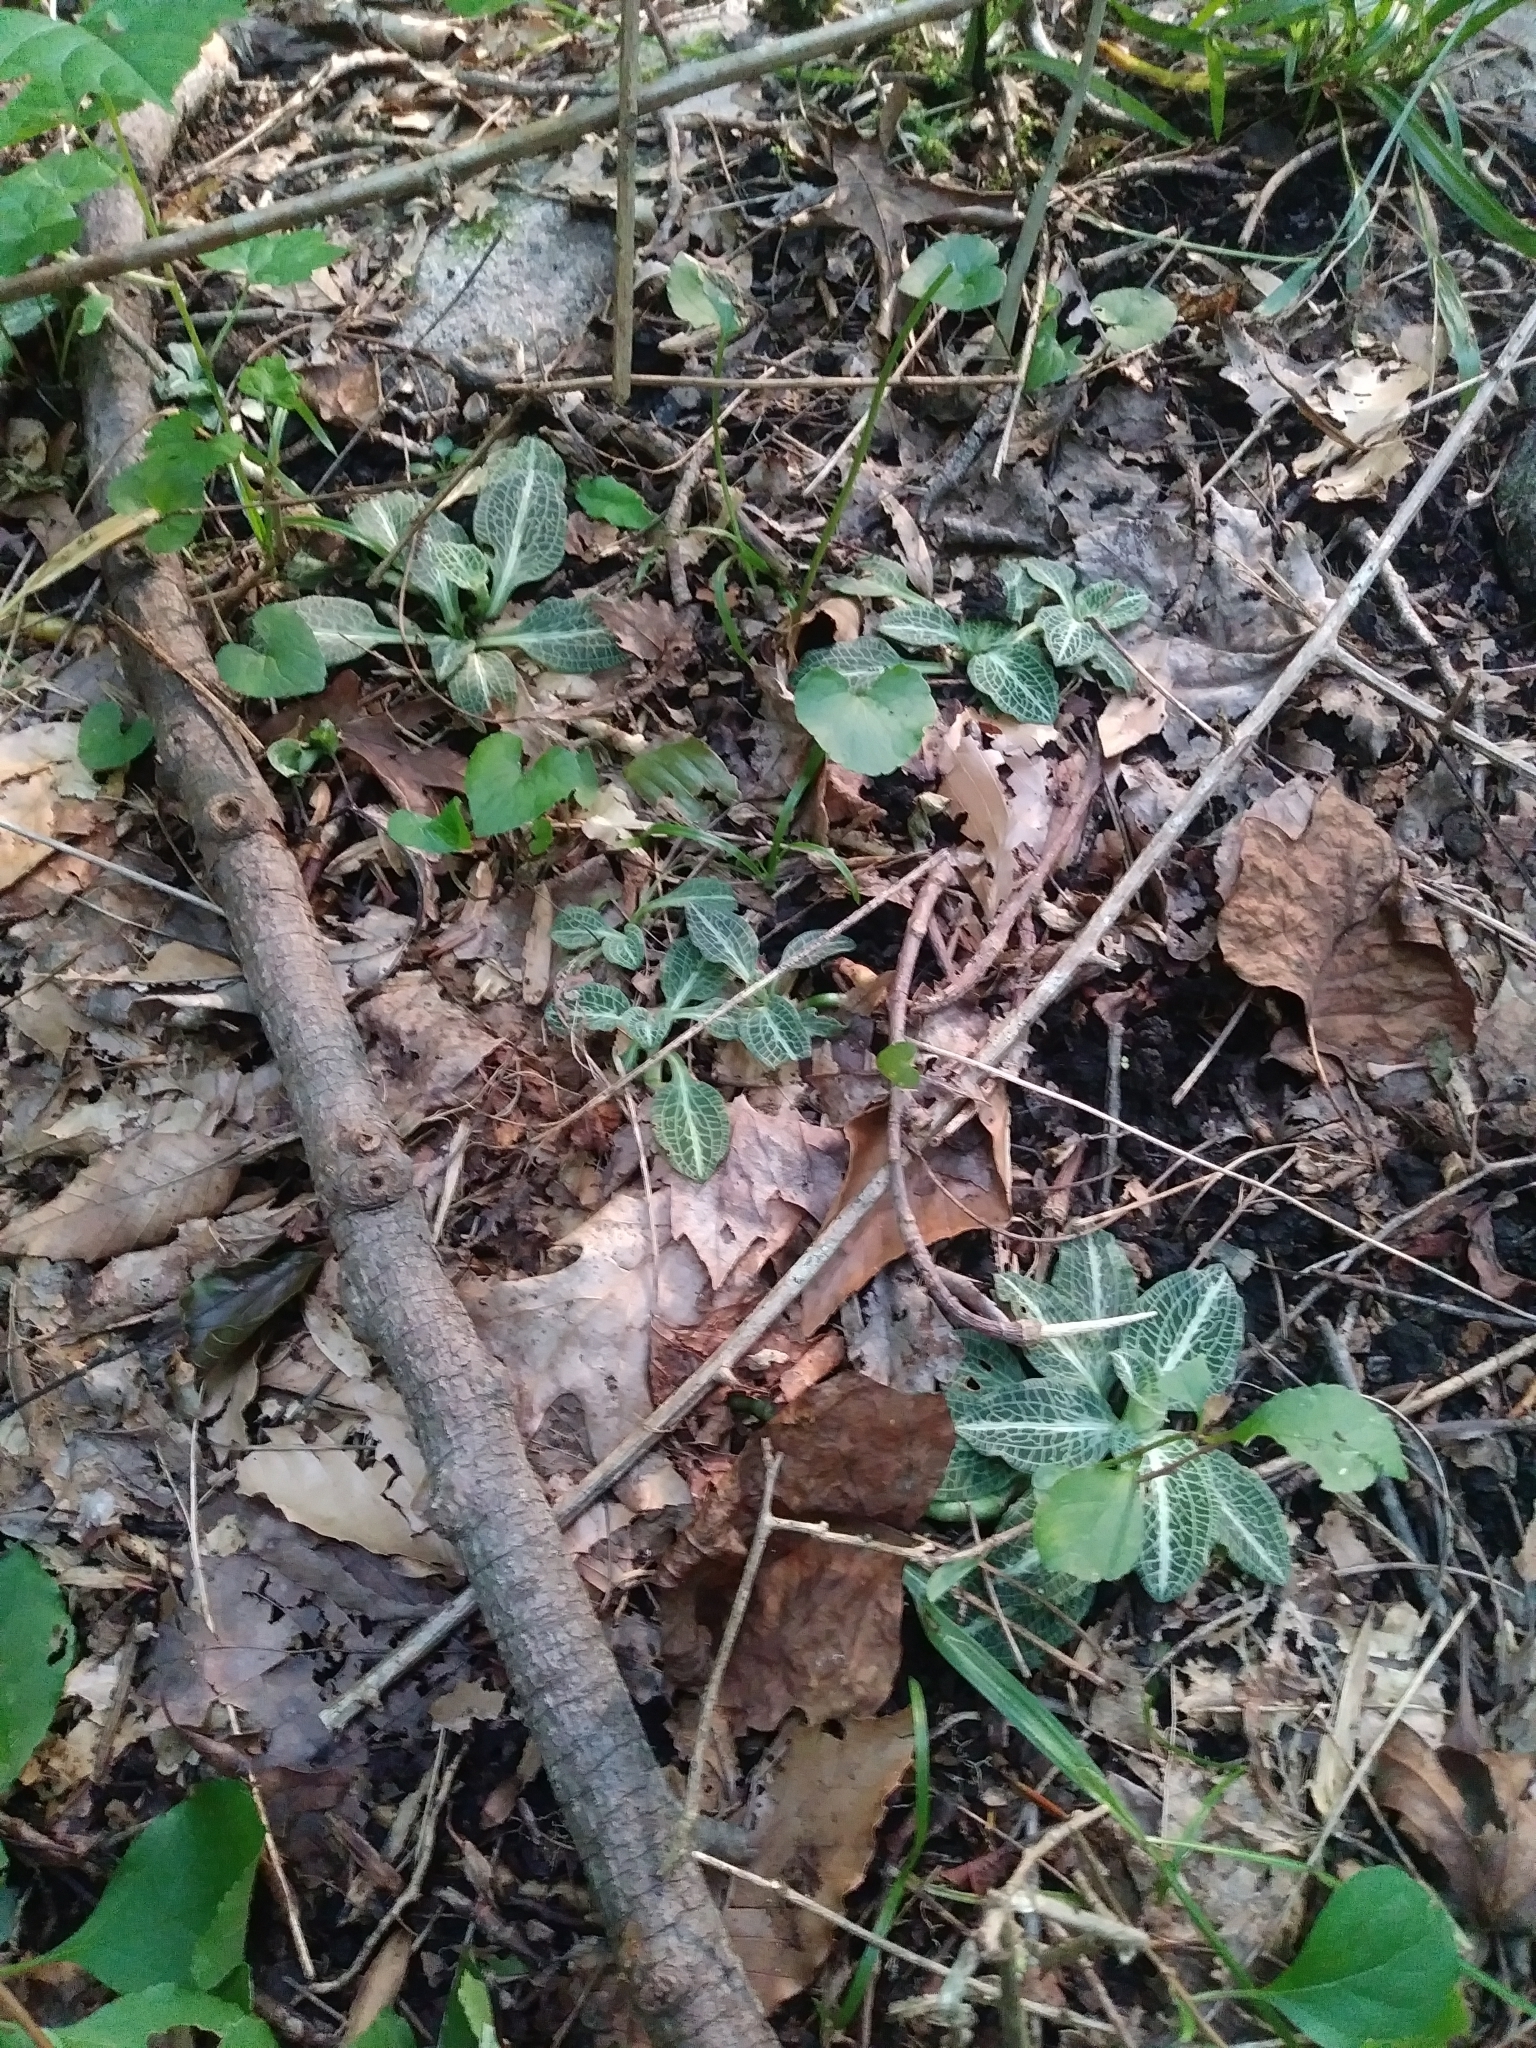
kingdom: Plantae
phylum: Tracheophyta
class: Liliopsida
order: Asparagales
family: Orchidaceae
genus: Goodyera
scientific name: Goodyera pubescens
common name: Downy rattlesnake-plantain
